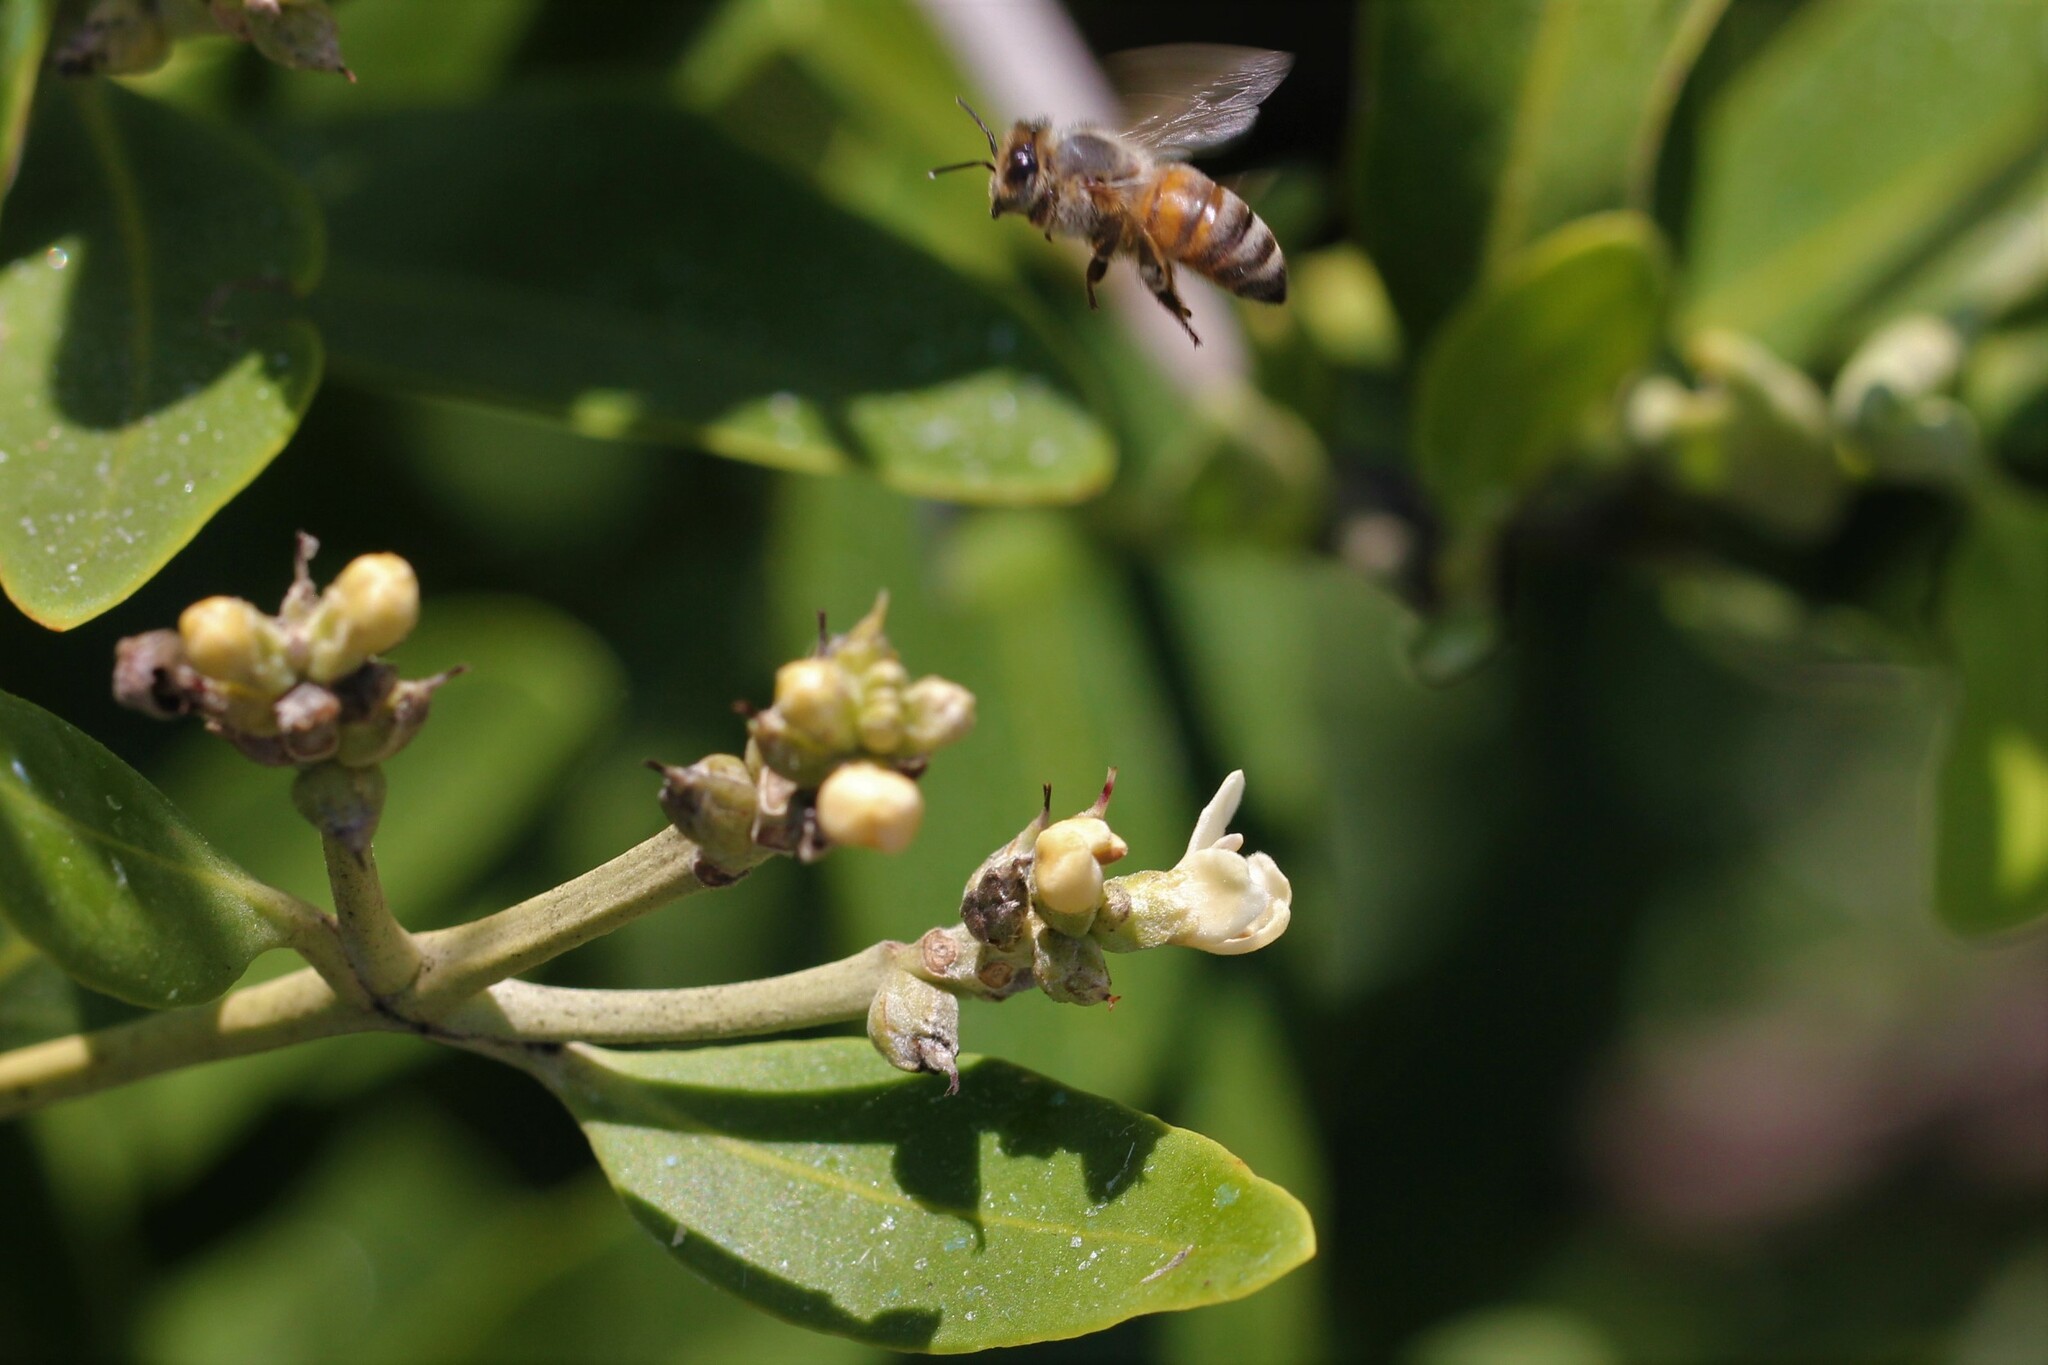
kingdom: Animalia
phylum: Arthropoda
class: Insecta
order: Hymenoptera
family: Apidae
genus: Apis
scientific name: Apis mellifera
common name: Honey bee
